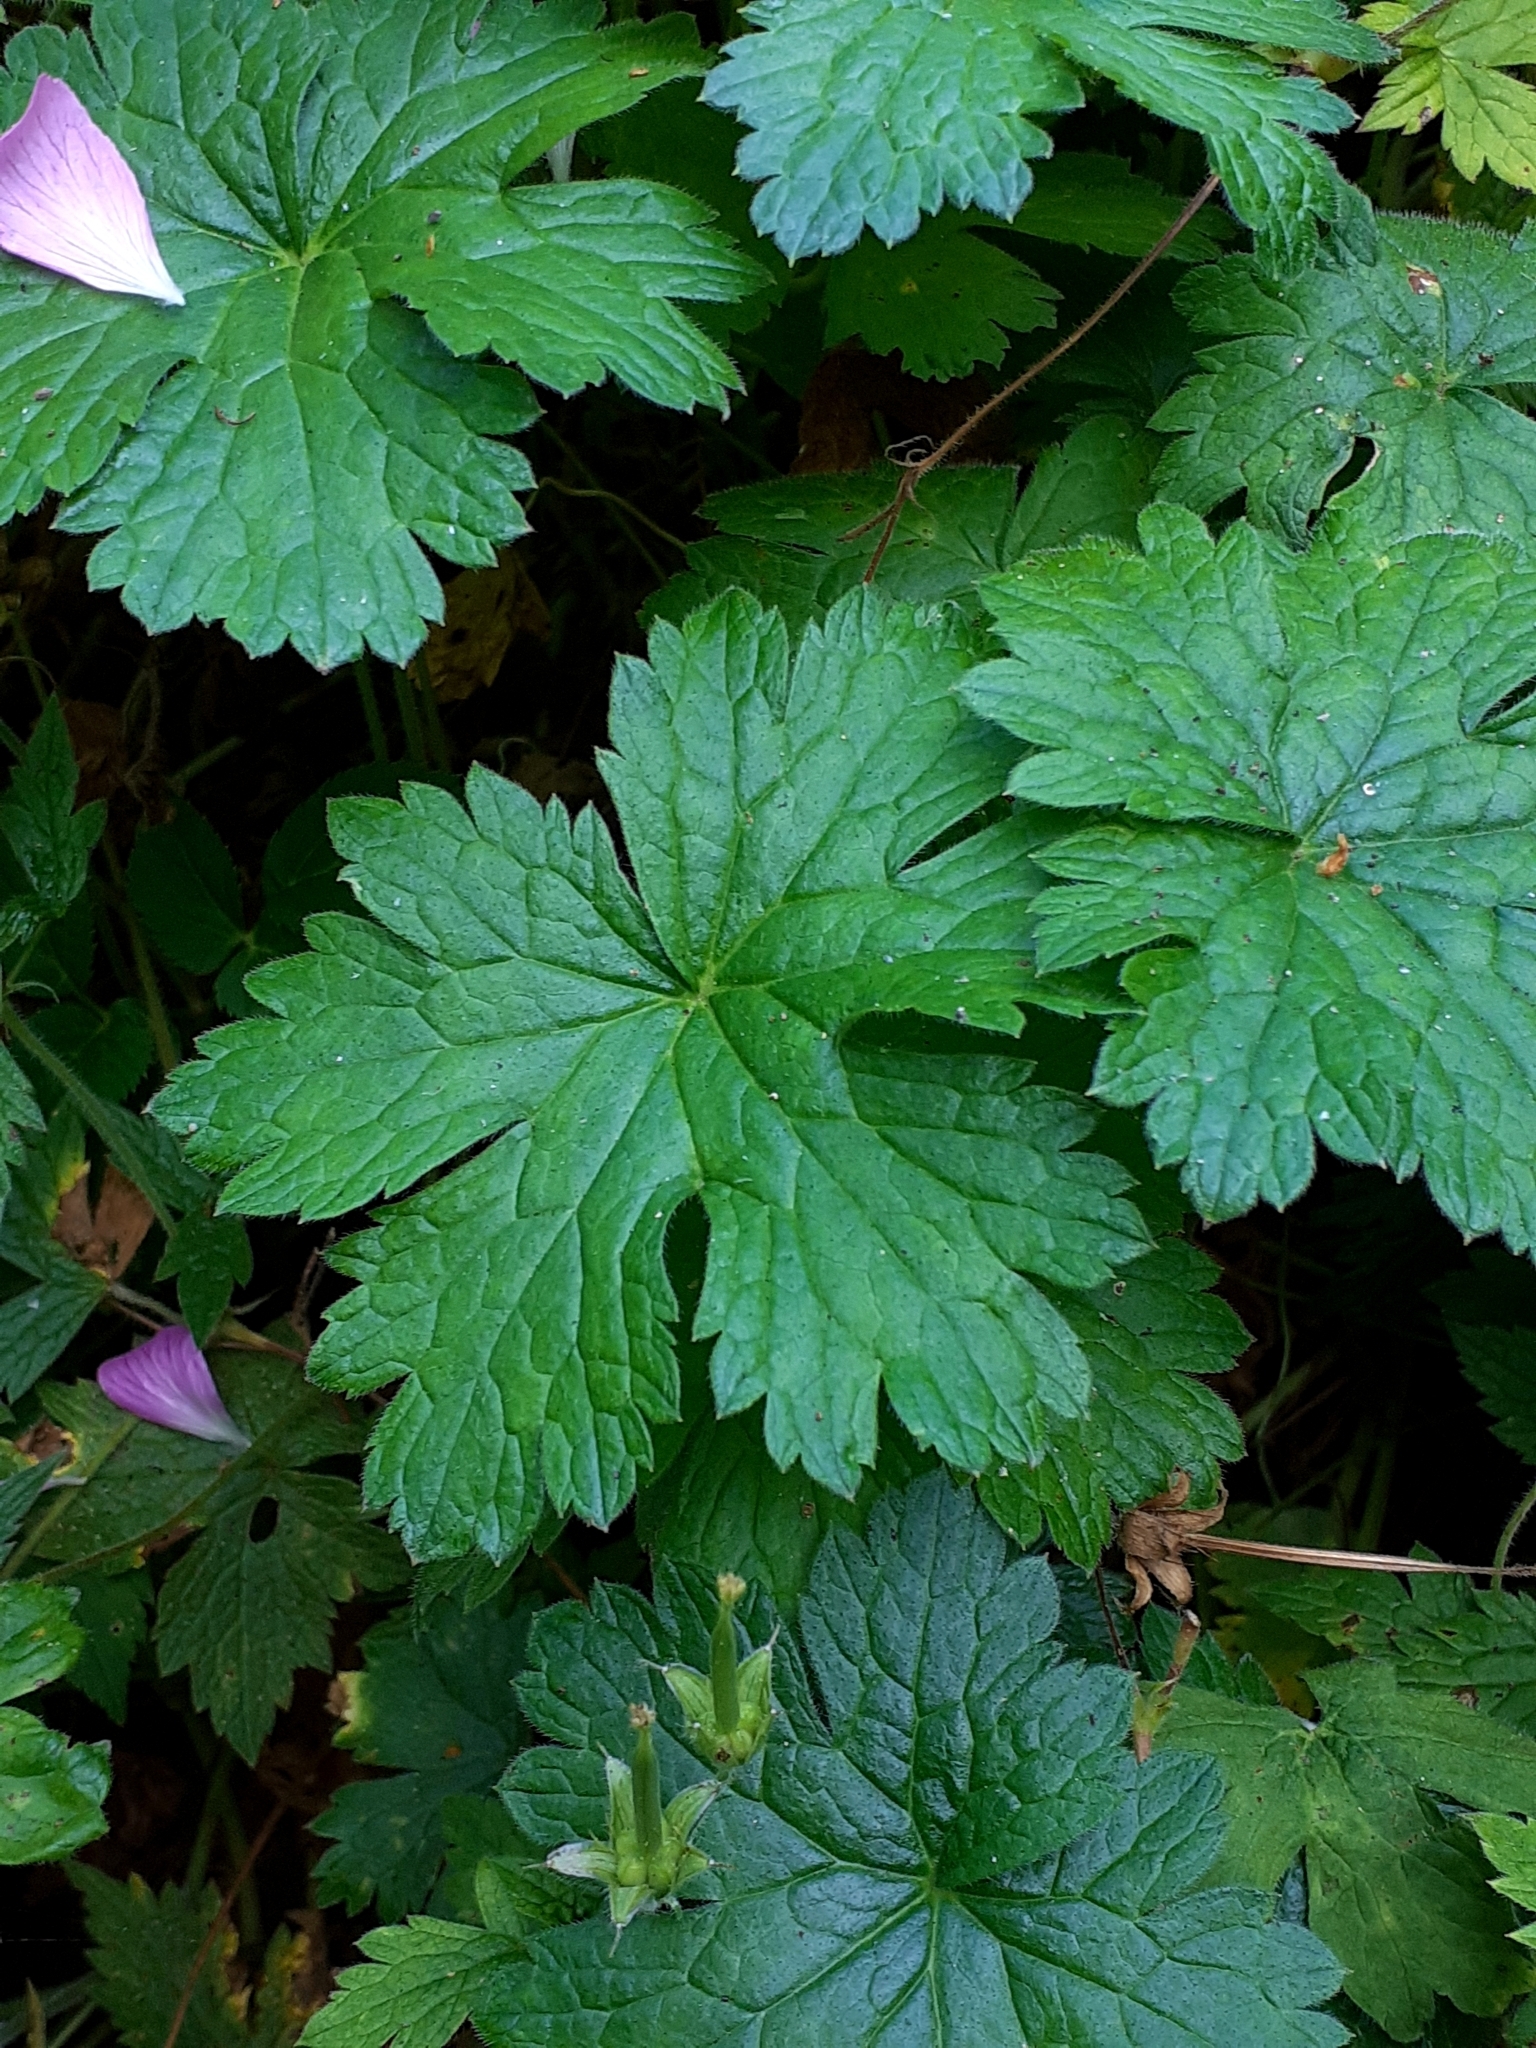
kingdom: Plantae
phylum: Tracheophyta
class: Magnoliopsida
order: Geraniales
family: Geraniaceae
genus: Geranium
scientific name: Geranium oxonianum
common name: Druce's crane's-bill
